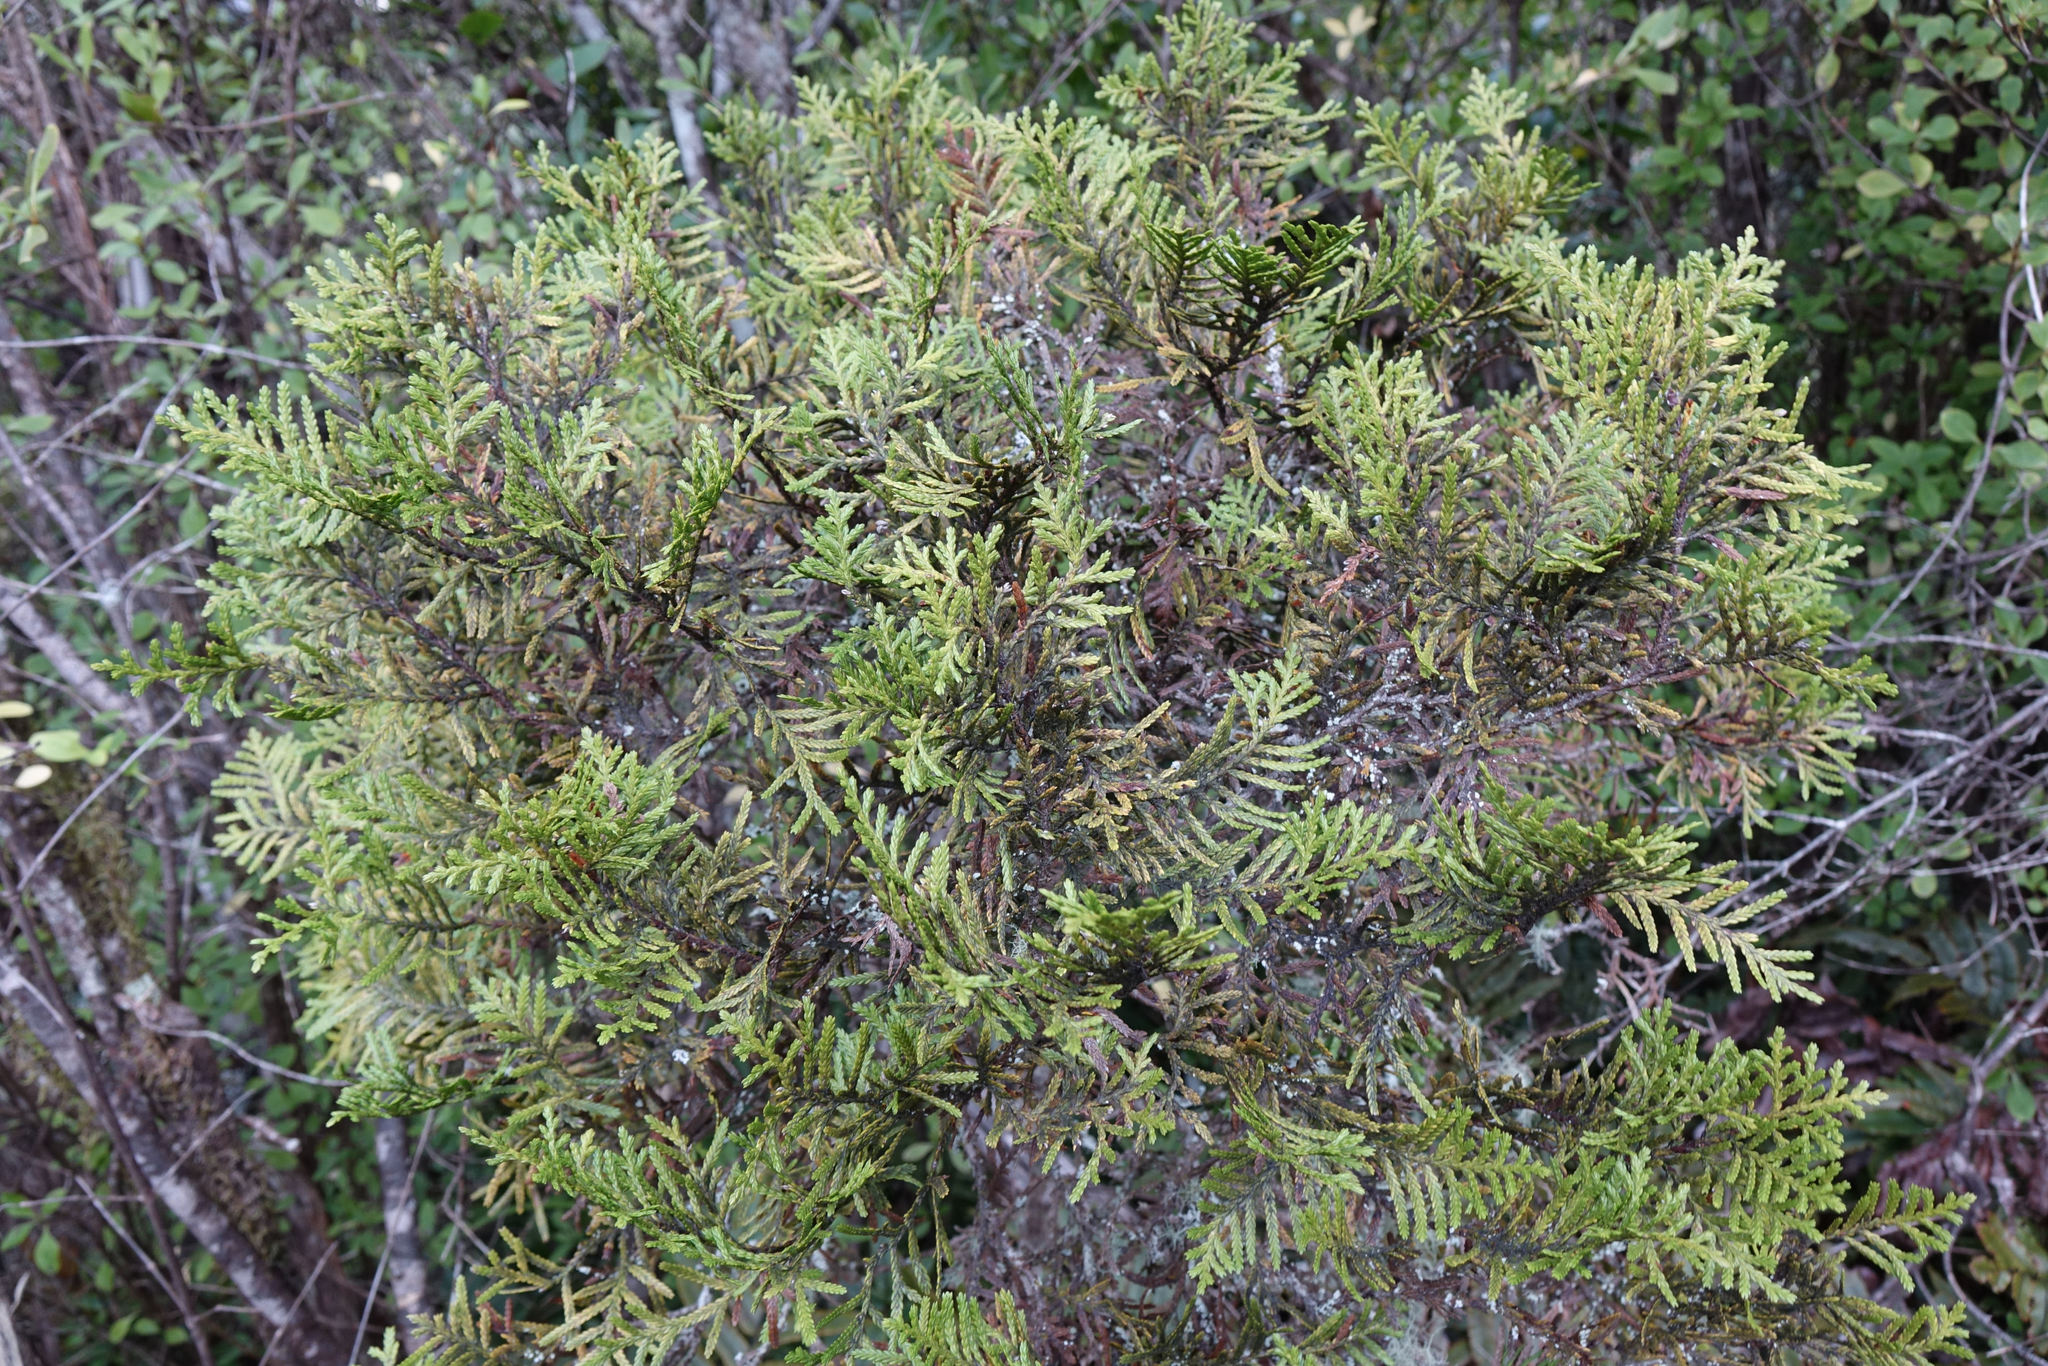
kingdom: Plantae
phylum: Tracheophyta
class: Pinopsida
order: Pinales
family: Cupressaceae
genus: Libocedrus
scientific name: Libocedrus bidwillii
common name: Cedar
